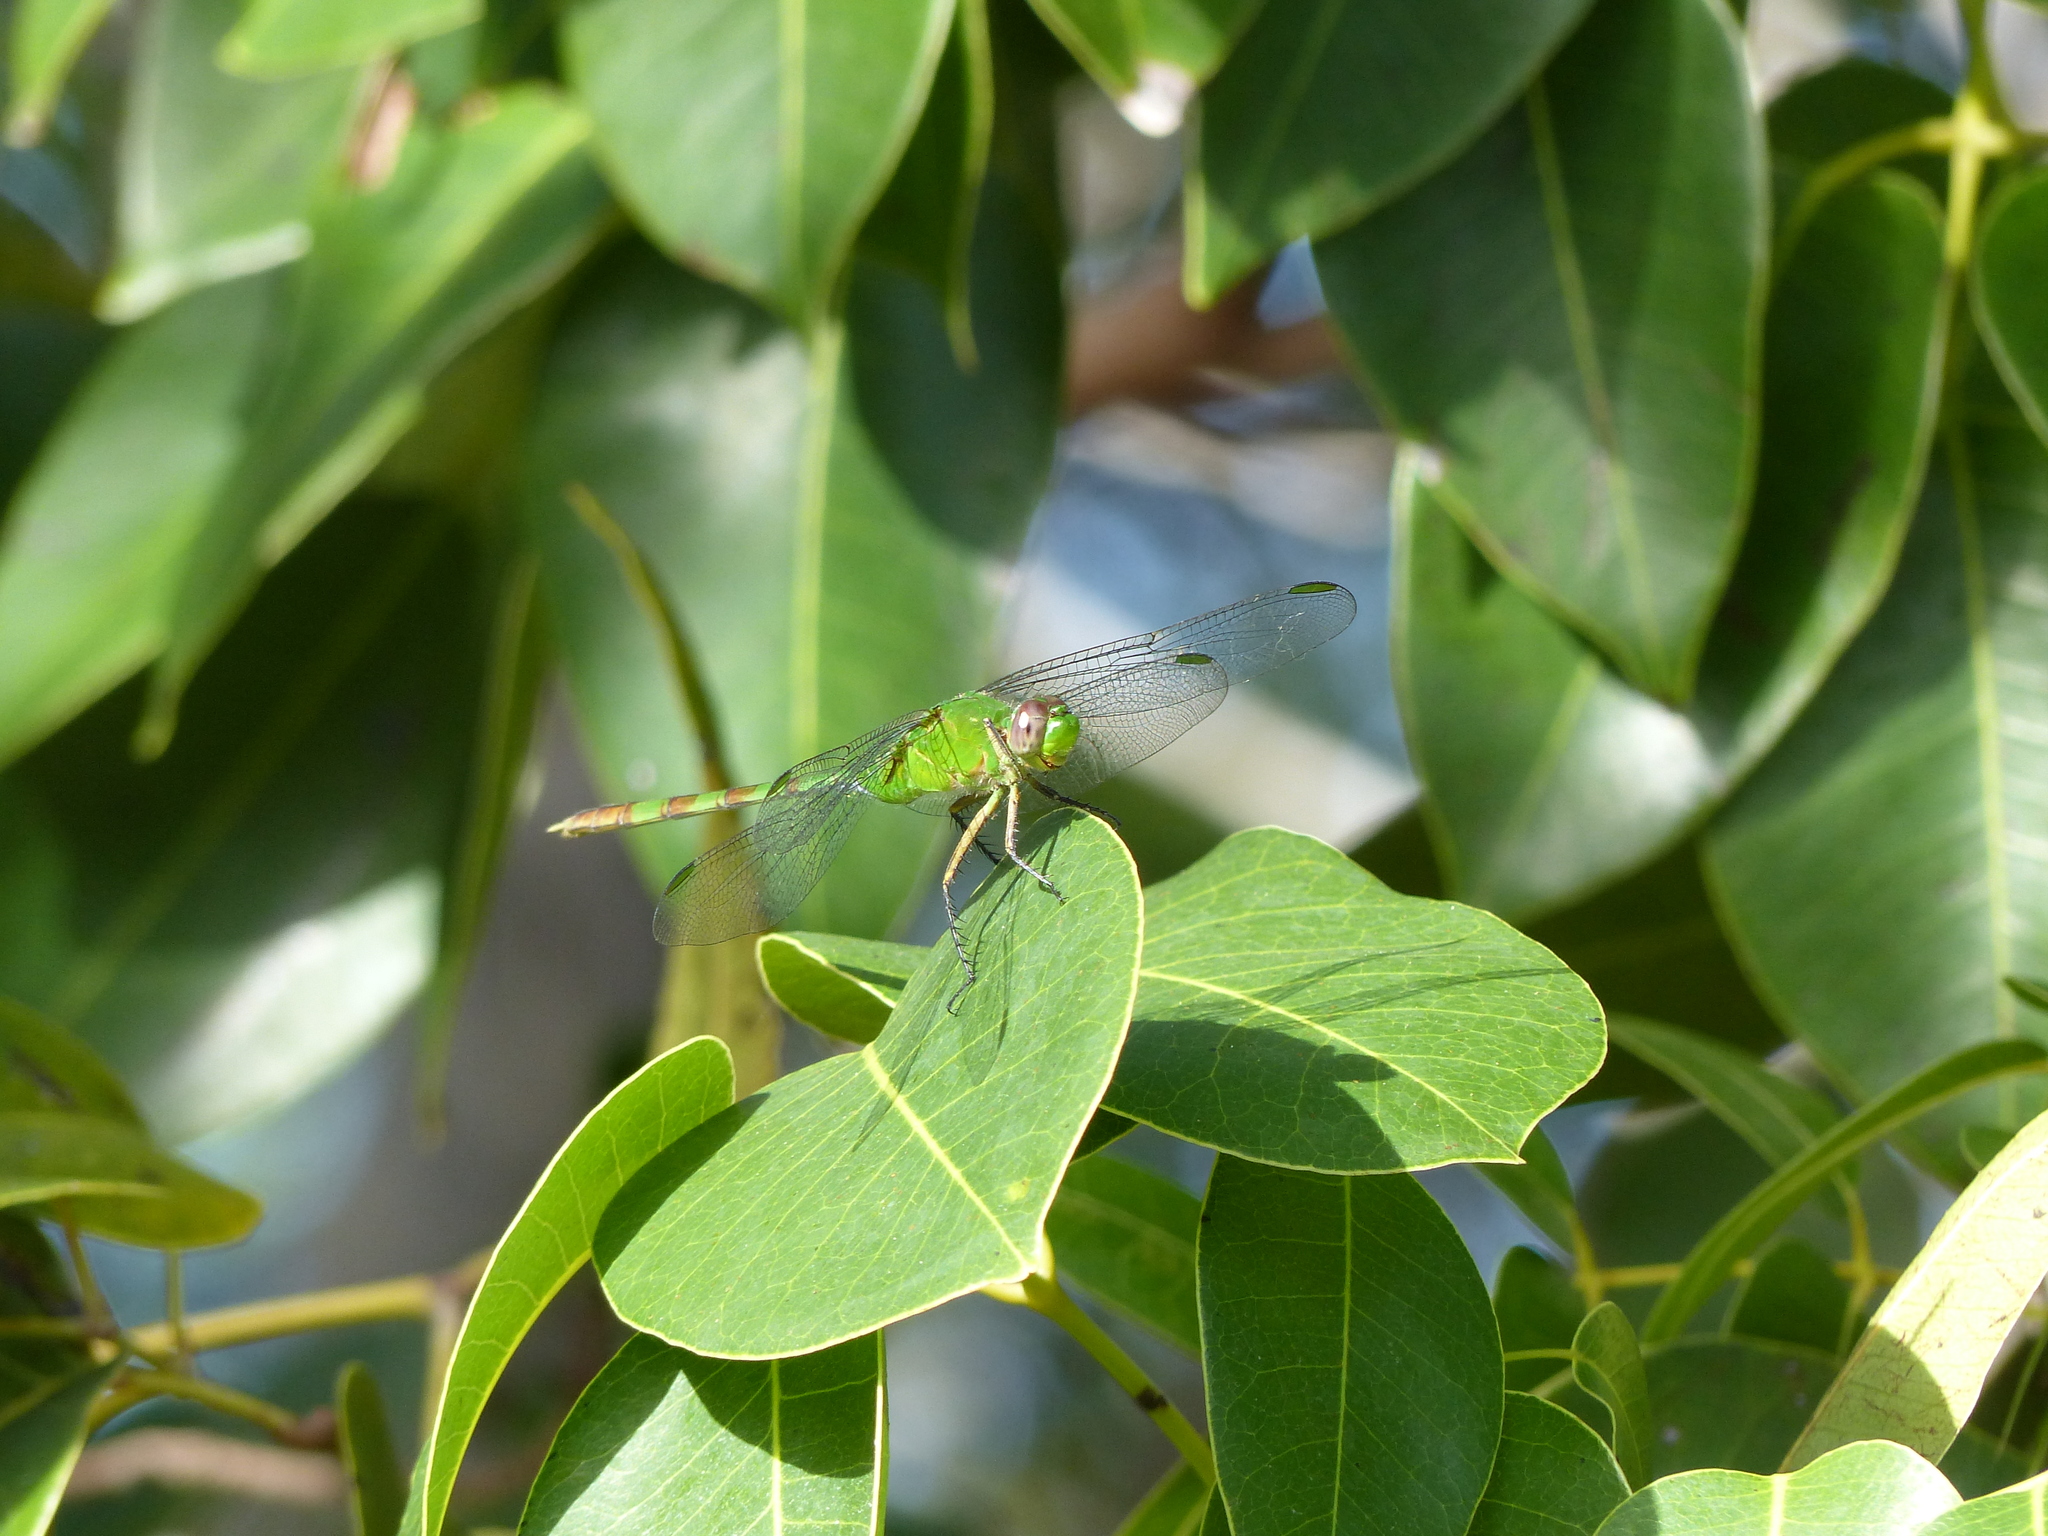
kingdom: Animalia
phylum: Arthropoda
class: Insecta
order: Odonata
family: Libellulidae
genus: Erythemis
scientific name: Erythemis vesiculosa
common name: Great pondhawk
